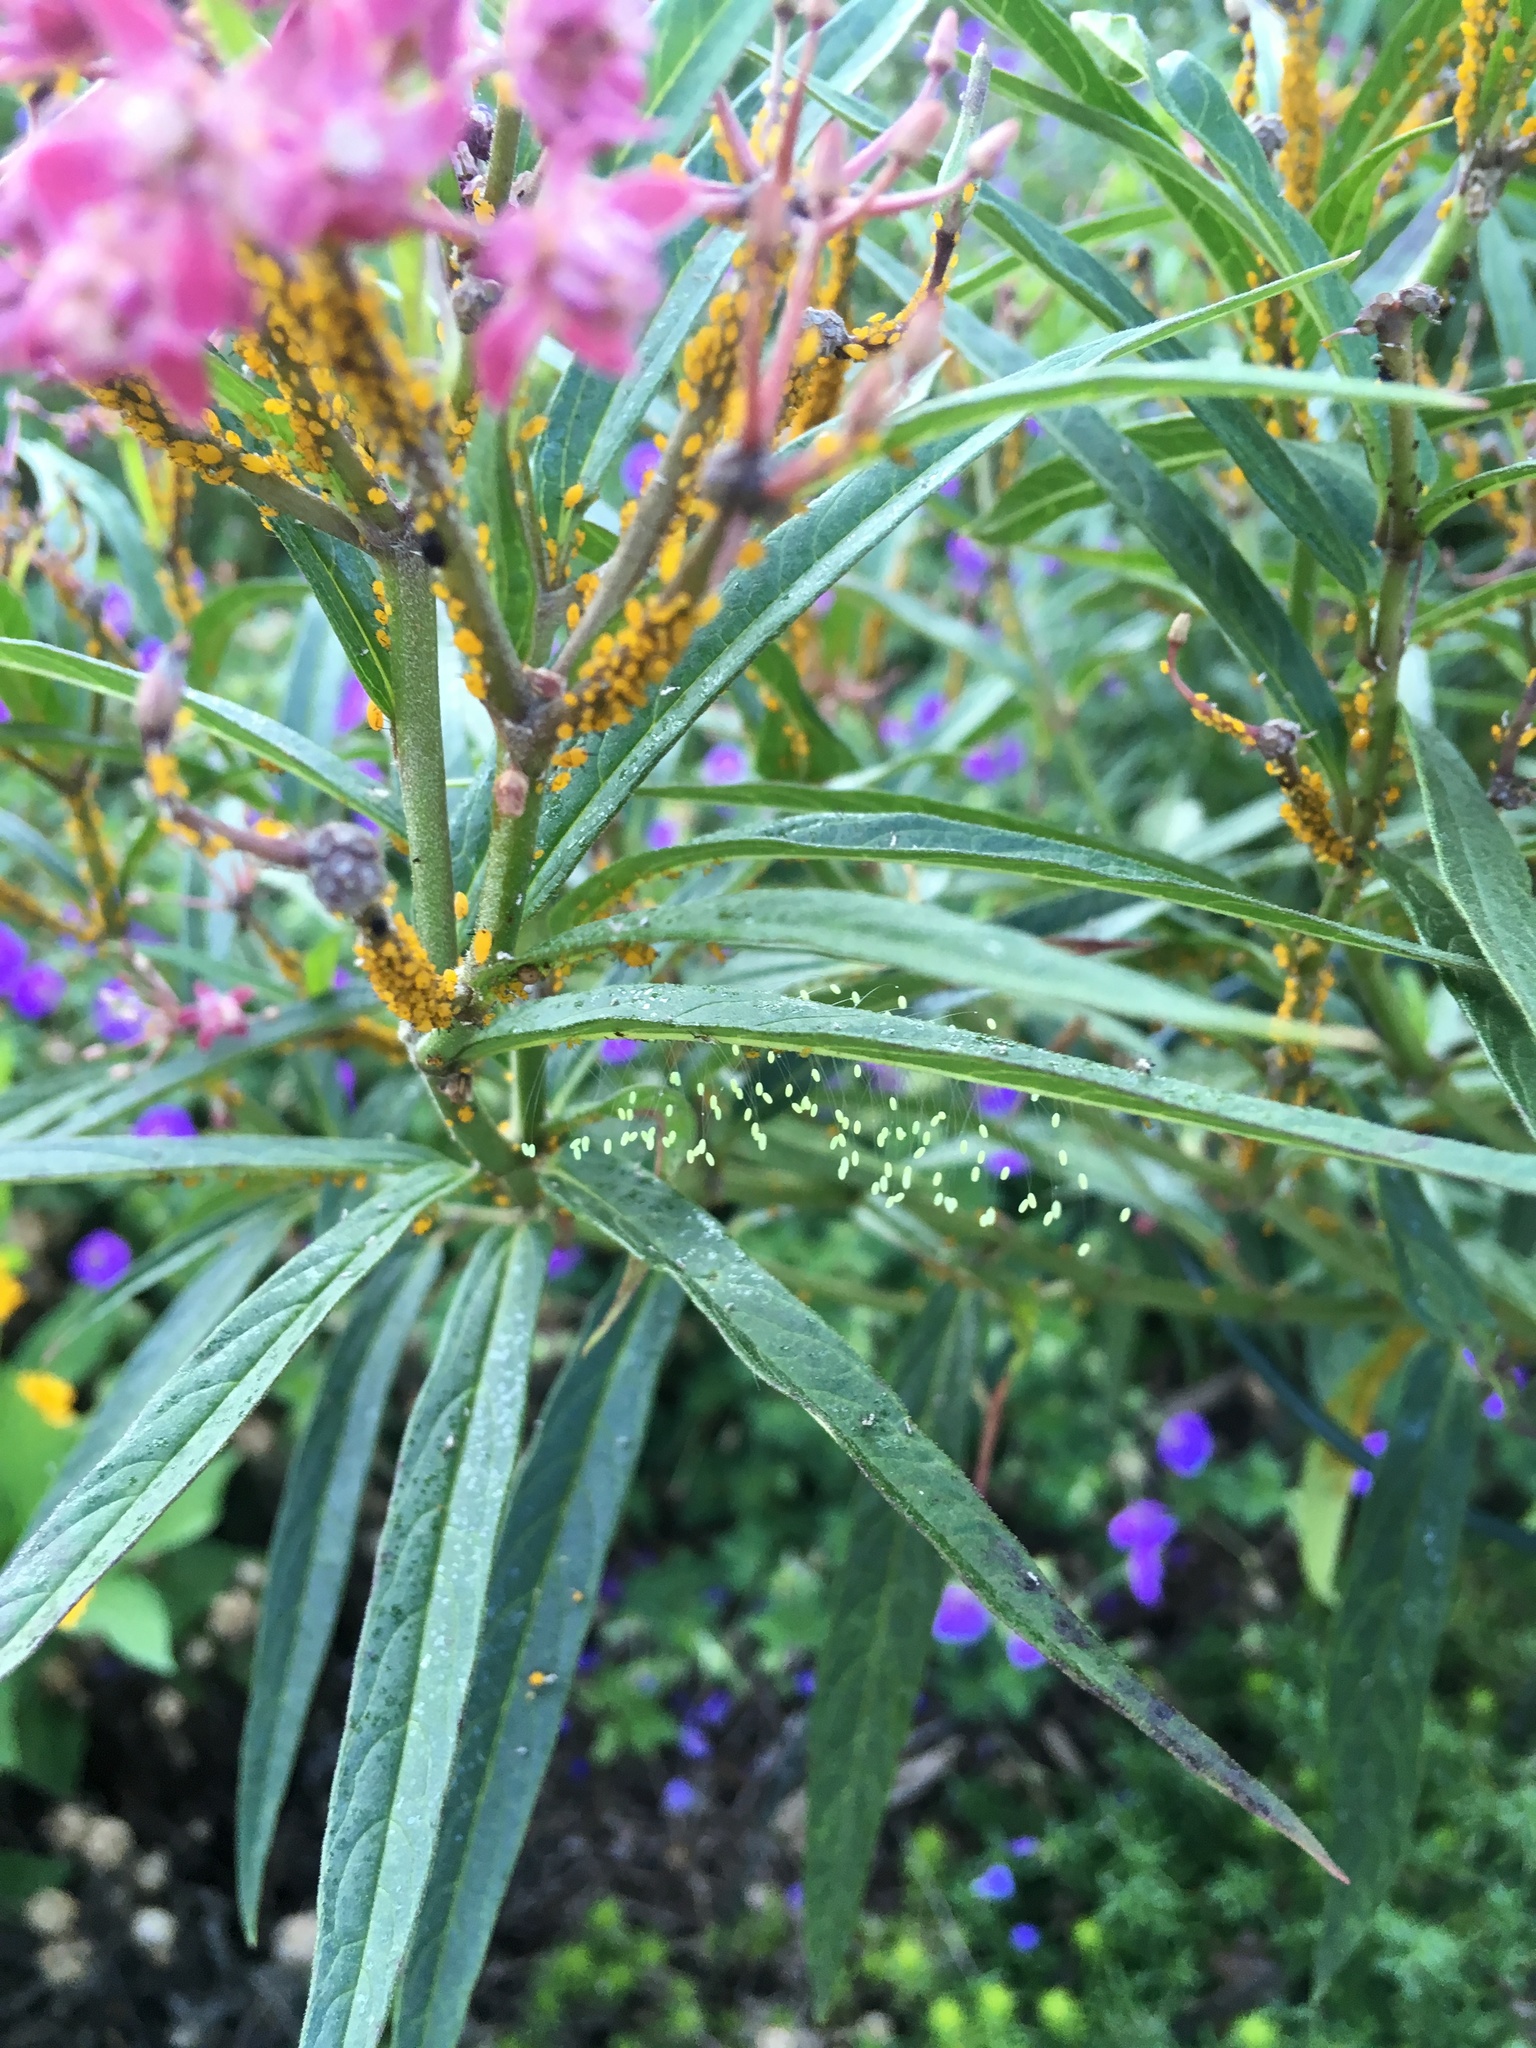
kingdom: Animalia
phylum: Arthropoda
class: Insecta
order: Hemiptera
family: Aphididae
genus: Aphis
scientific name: Aphis nerii
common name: Oleander aphid
